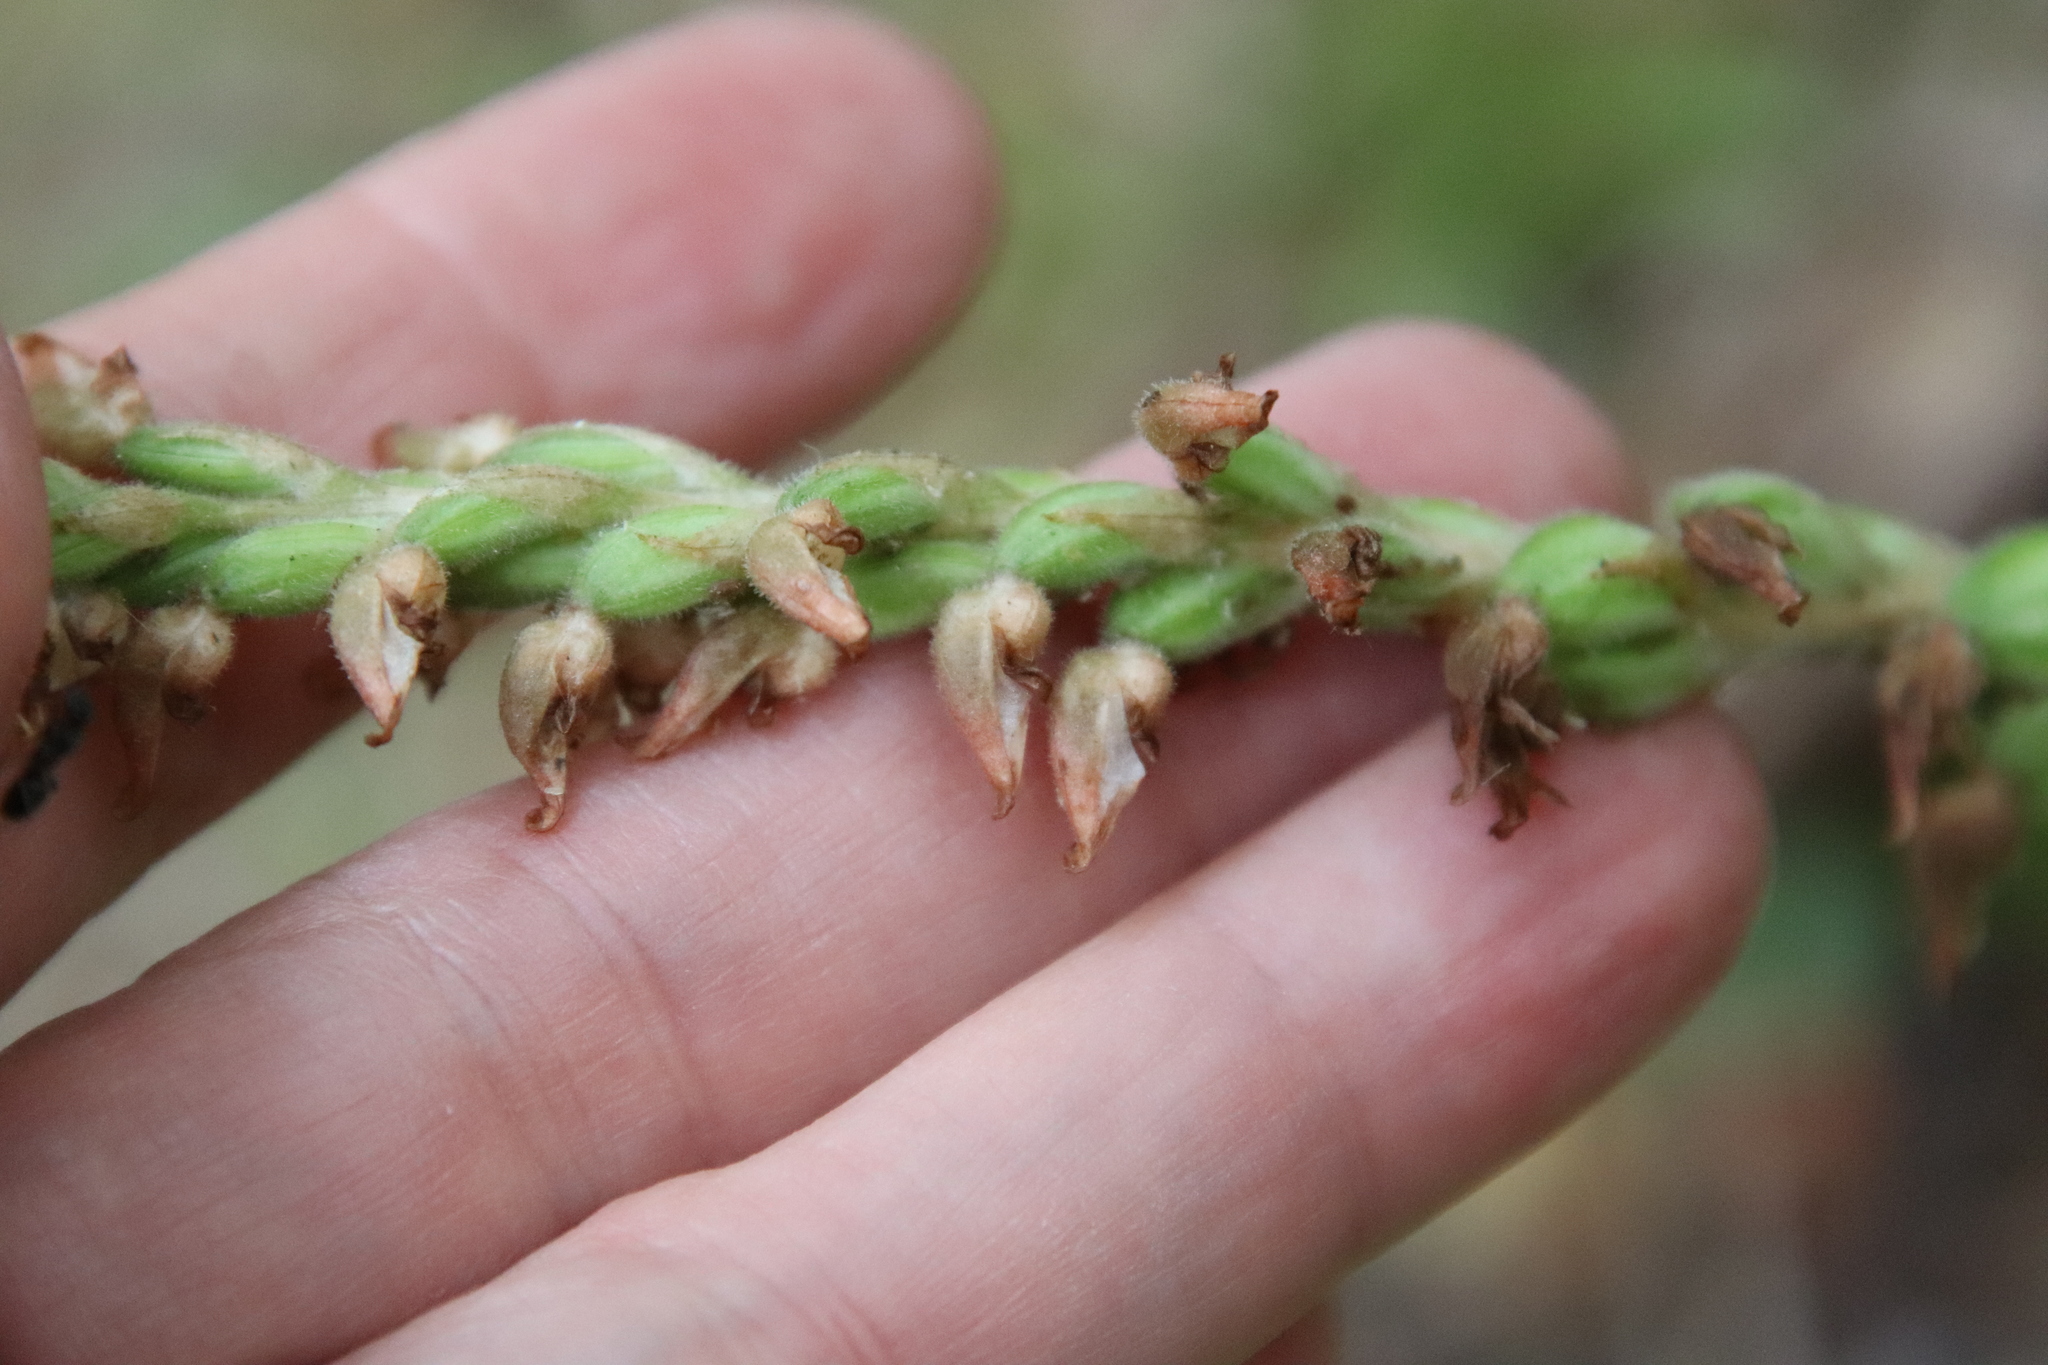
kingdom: Plantae
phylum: Tracheophyta
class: Liliopsida
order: Asparagales
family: Orchidaceae
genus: Goodyera
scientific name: Goodyera oblongifolia
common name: Giant rattlesnake-plantain
